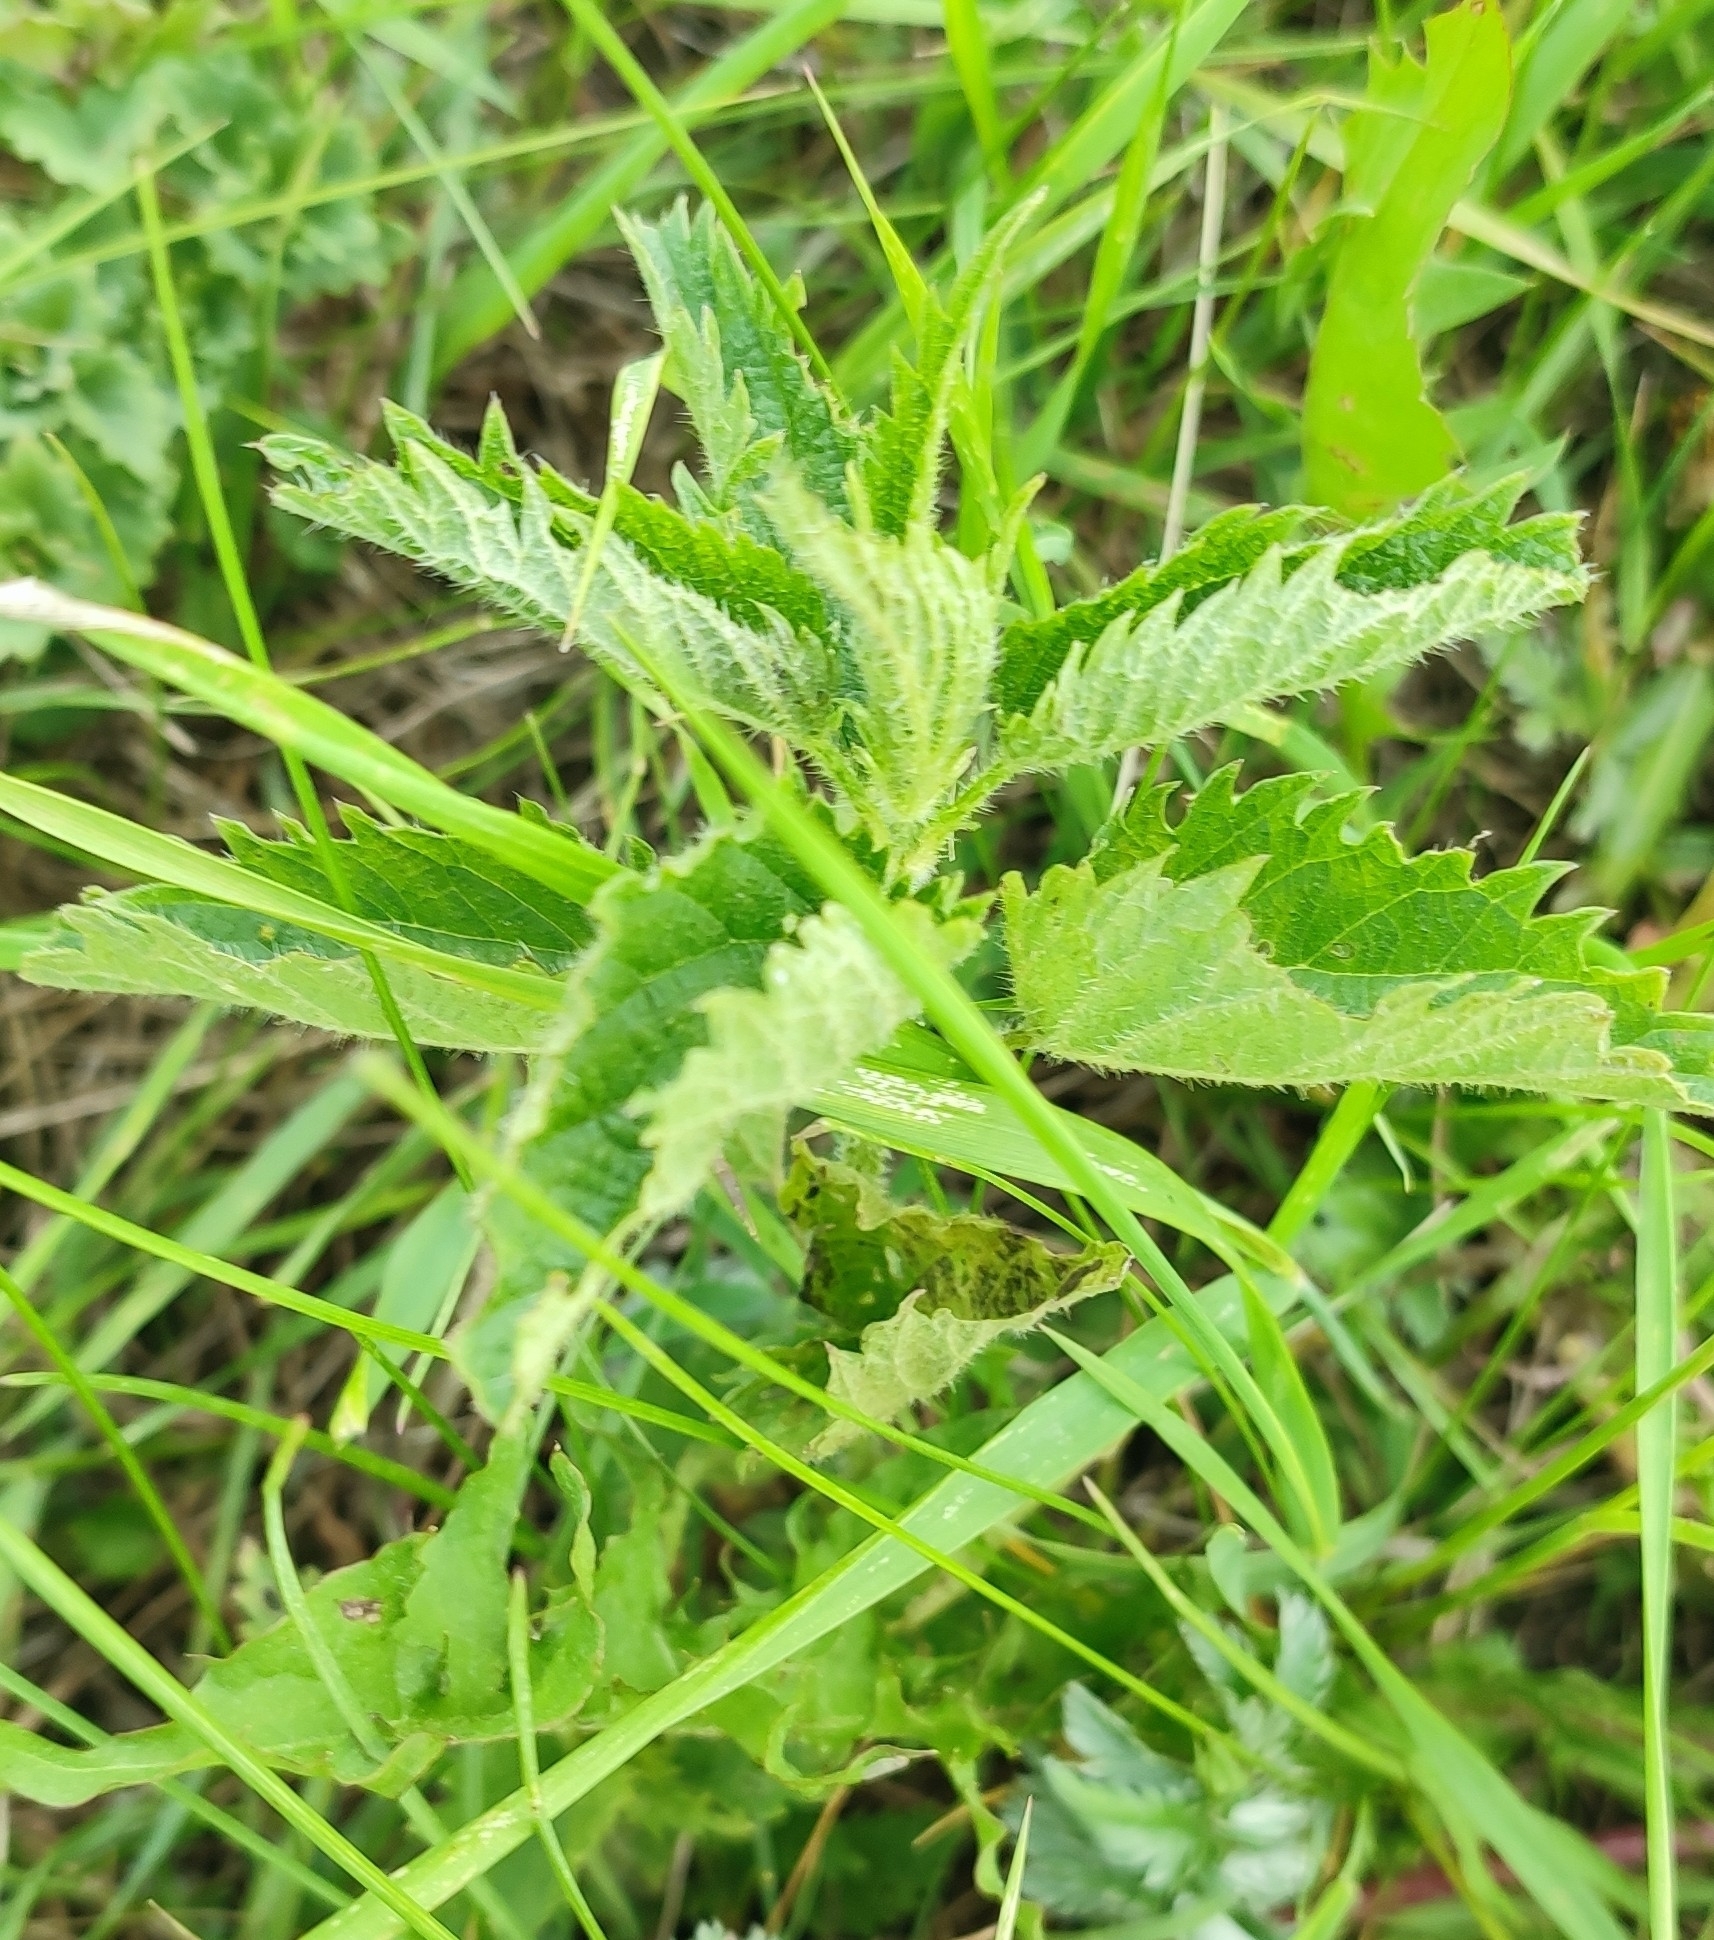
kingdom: Plantae
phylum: Tracheophyta
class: Magnoliopsida
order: Rosales
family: Urticaceae
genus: Urtica
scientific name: Urtica dioica
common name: Common nettle
